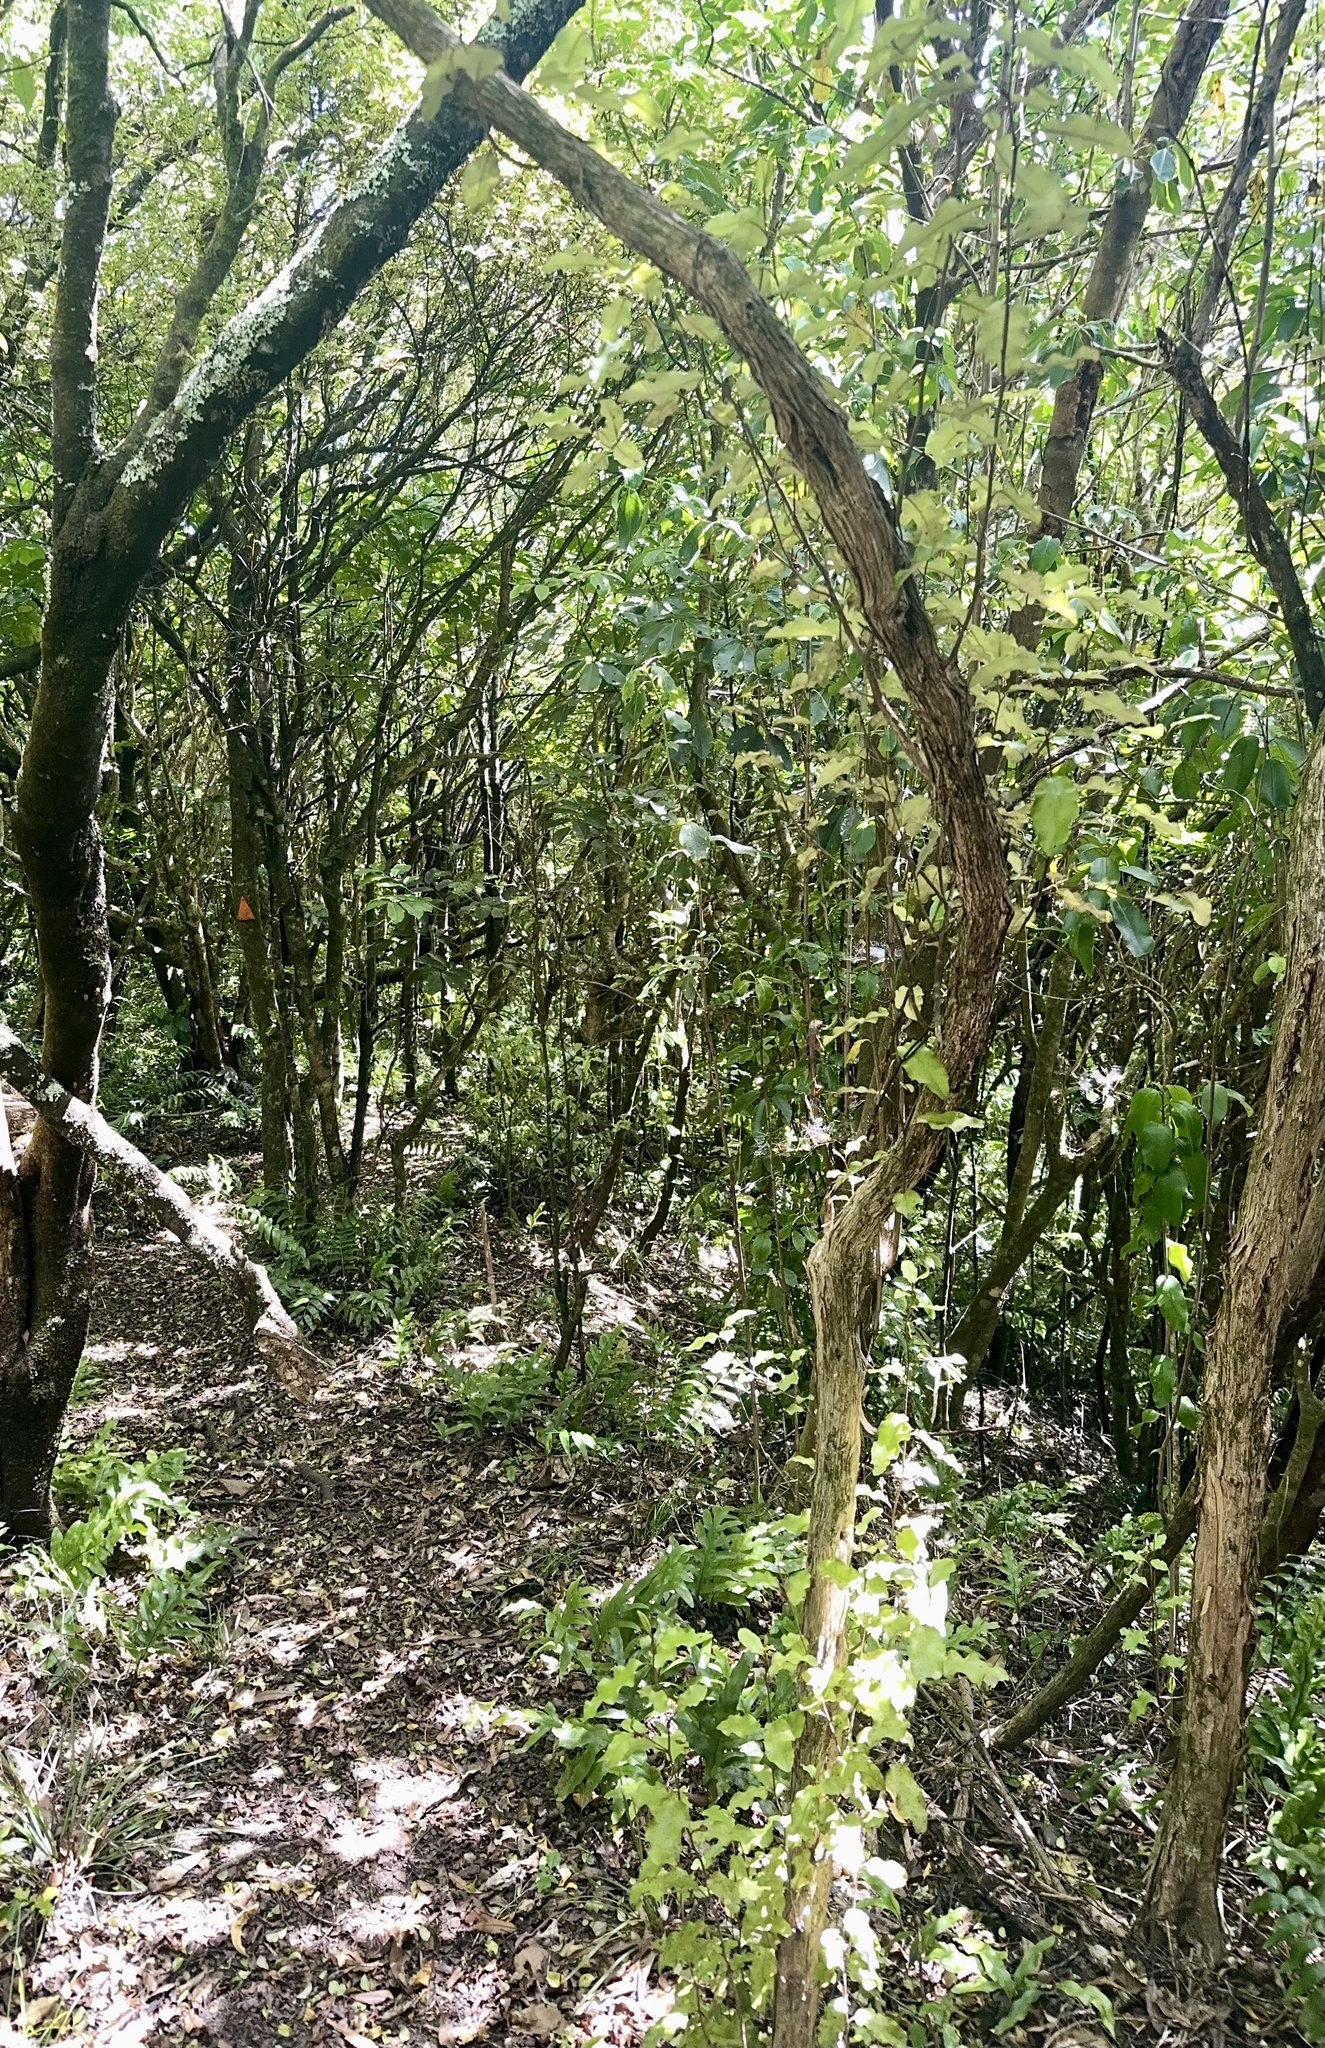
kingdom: Plantae
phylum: Tracheophyta
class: Magnoliopsida
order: Asterales
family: Asteraceae
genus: Olearia
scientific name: Olearia paniculata
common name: Akiraho
